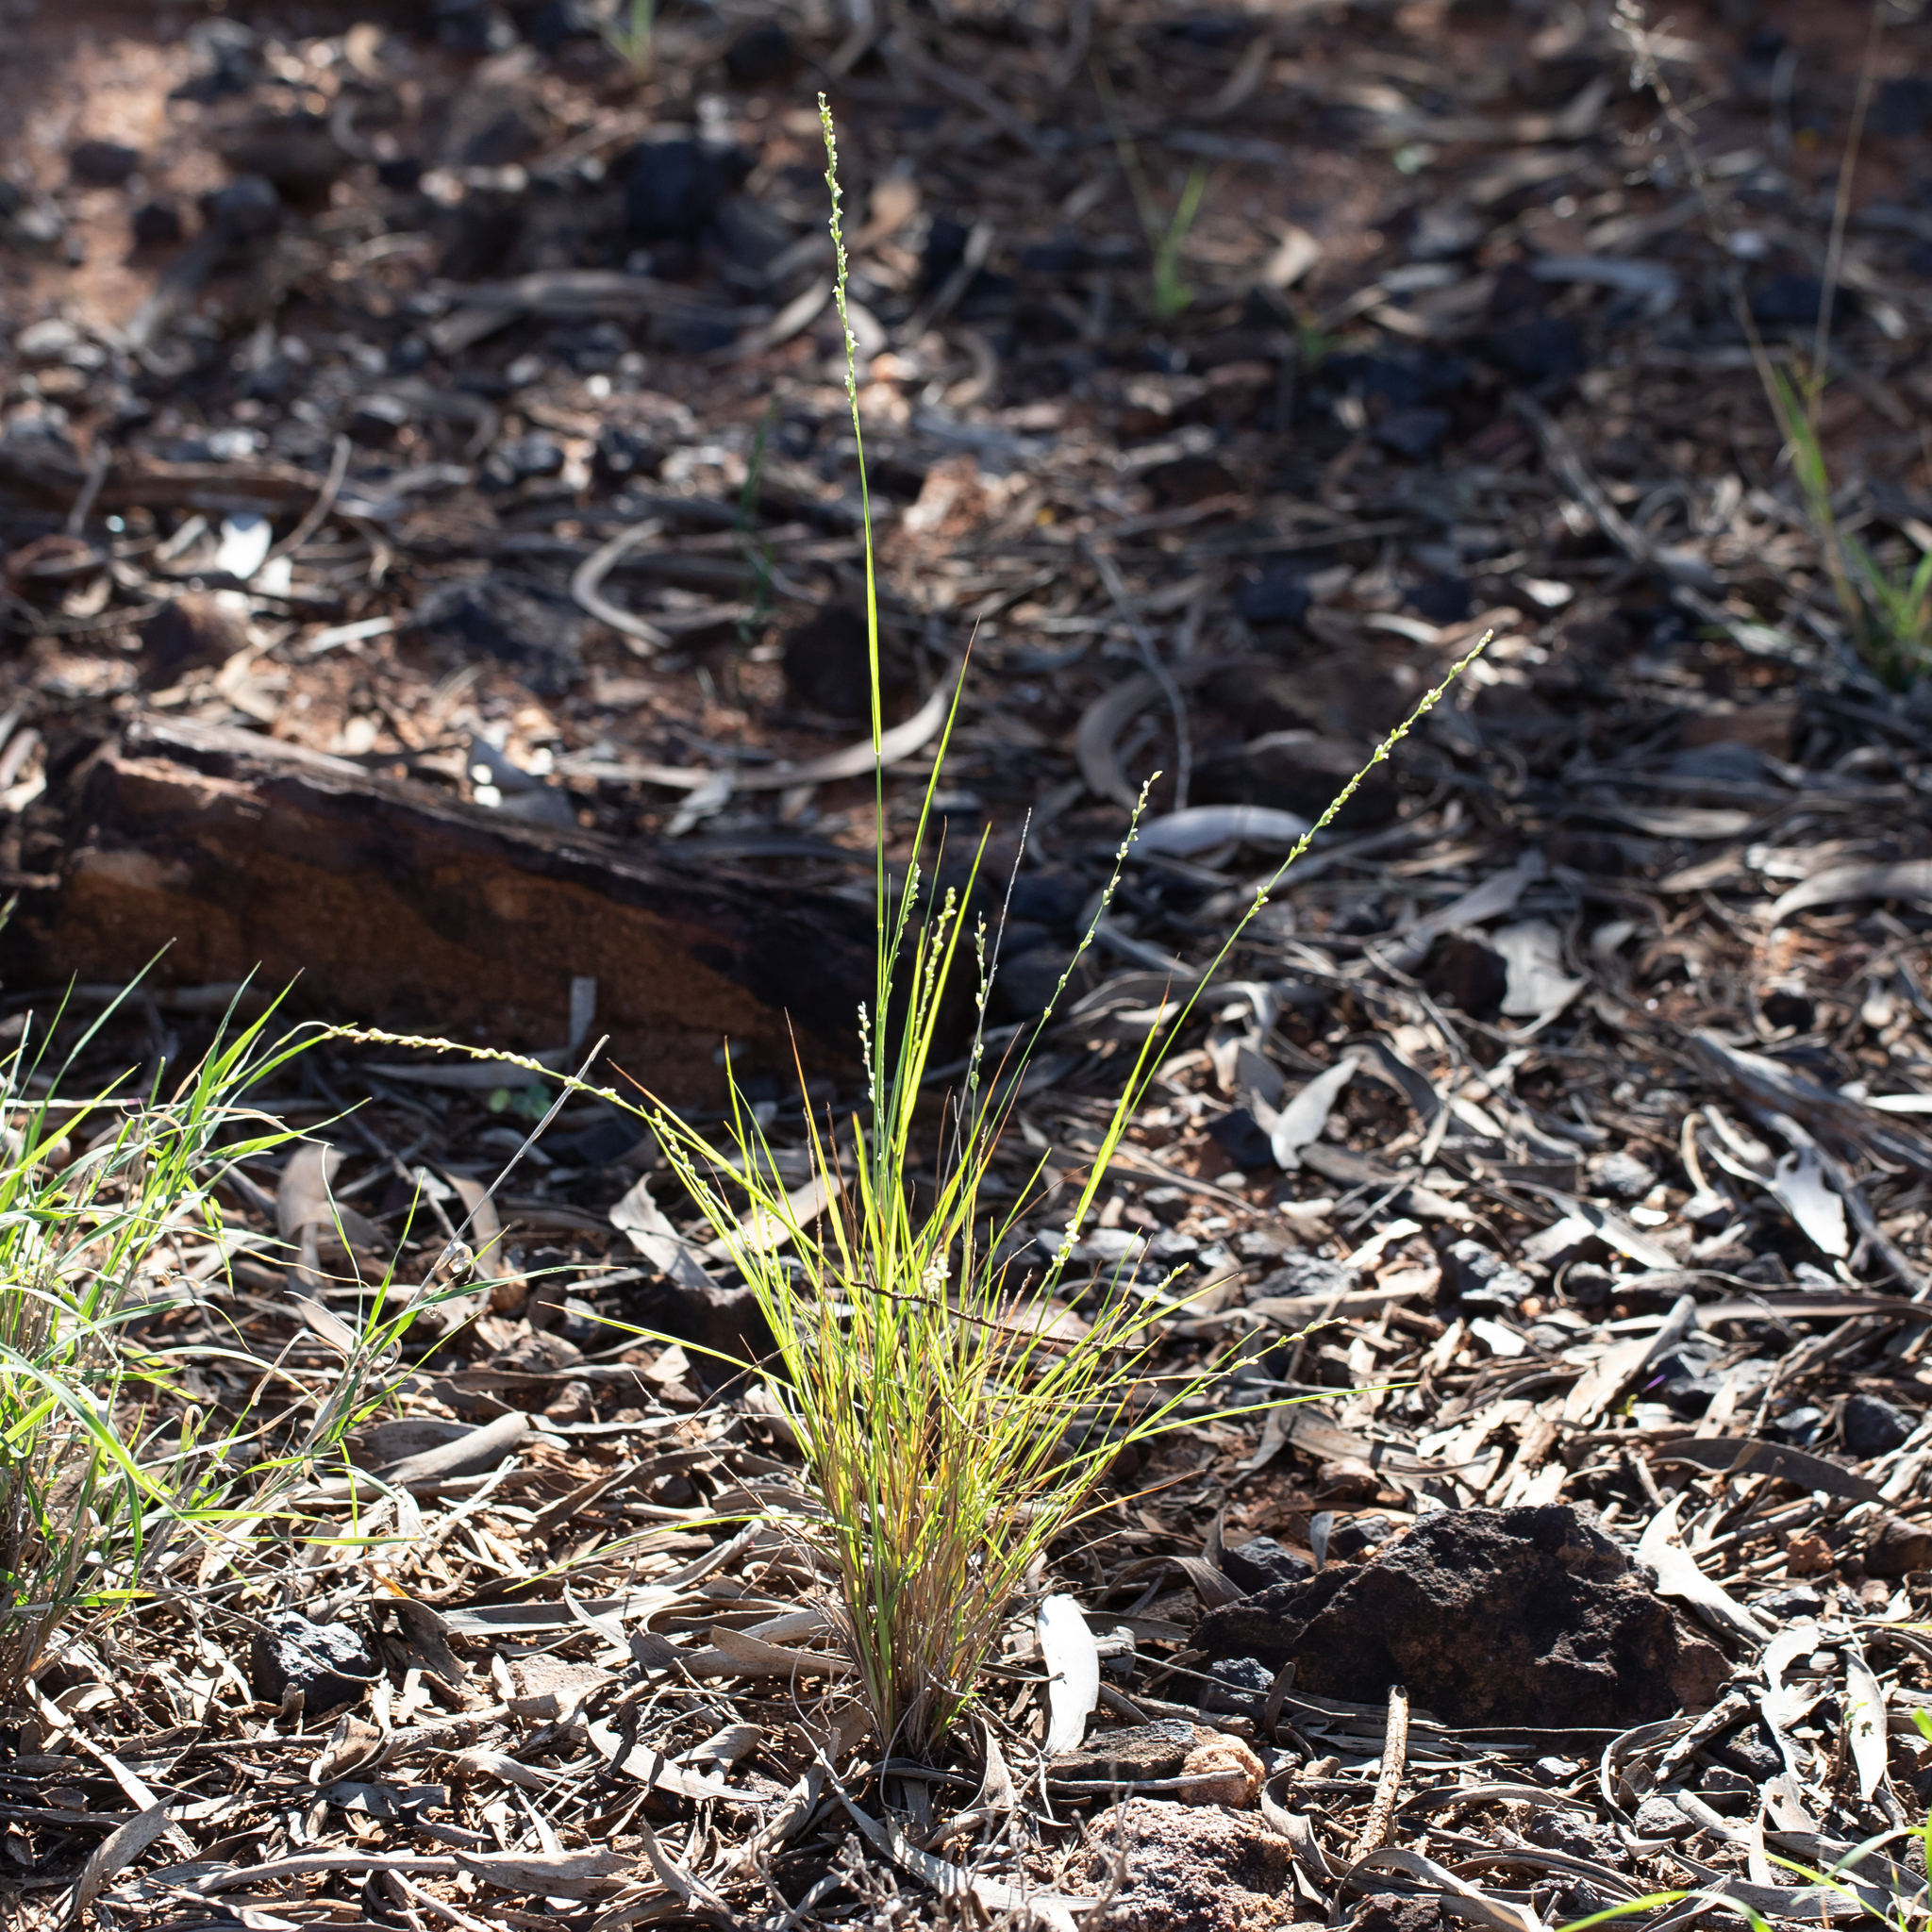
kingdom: Plantae
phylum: Tracheophyta
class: Liliopsida
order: Poales
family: Poaceae
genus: Setaria
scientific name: Setaria constricta
